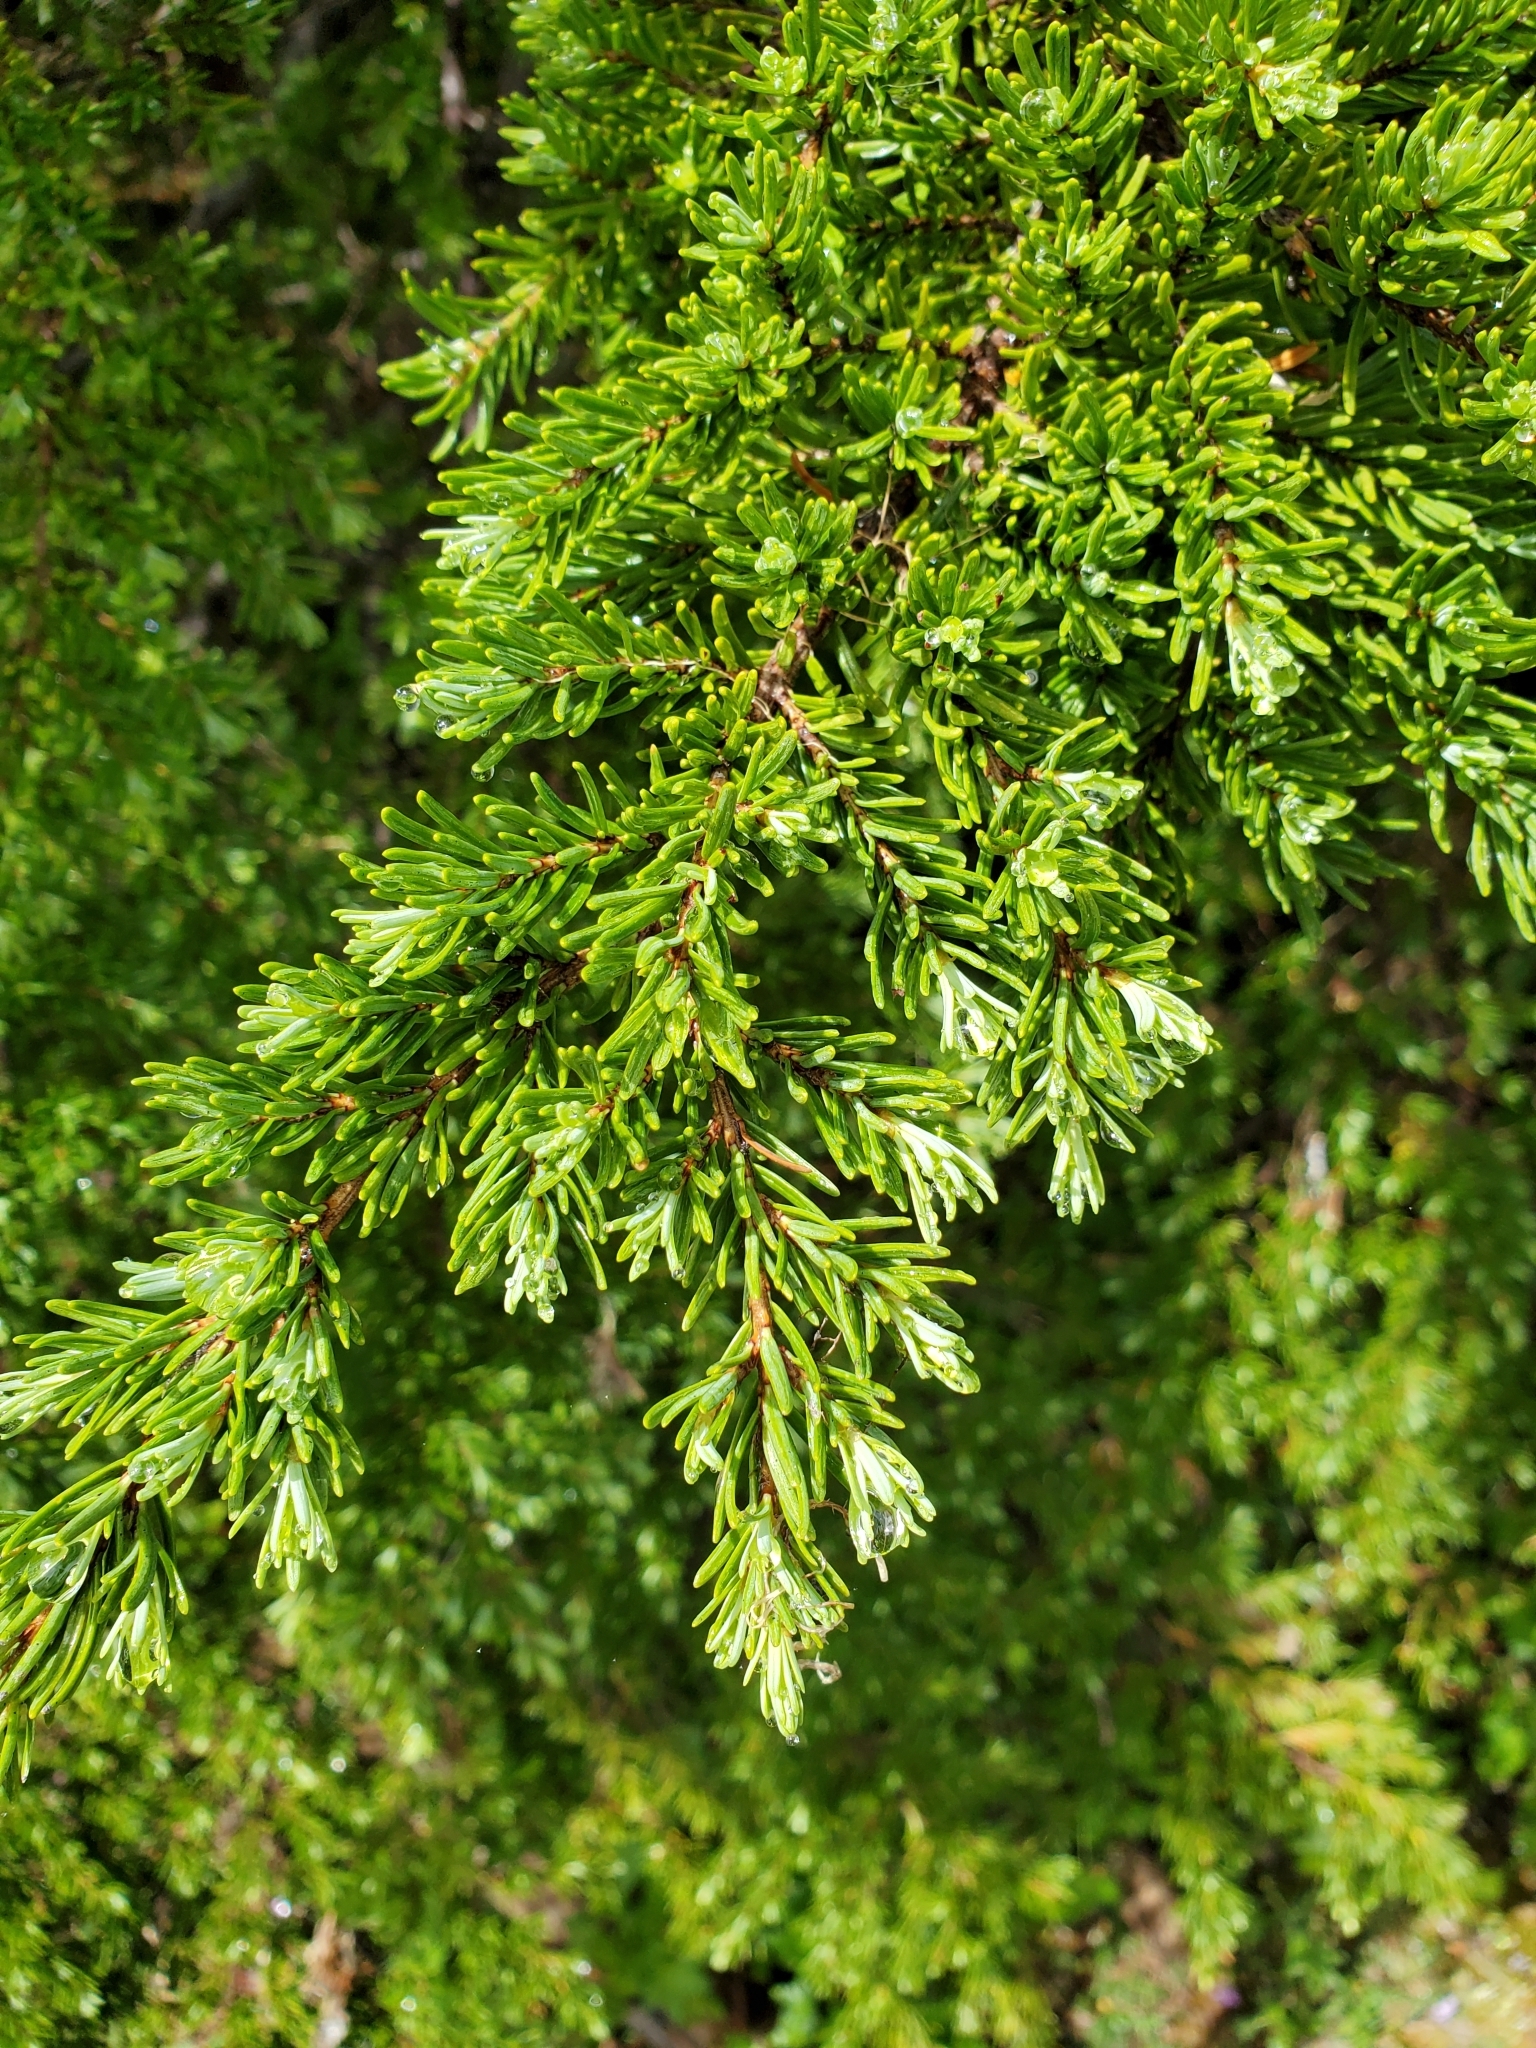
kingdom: Plantae
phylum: Tracheophyta
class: Pinopsida
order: Pinales
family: Pinaceae
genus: Tsuga
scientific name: Tsuga mertensiana
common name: Mountain hemlock
